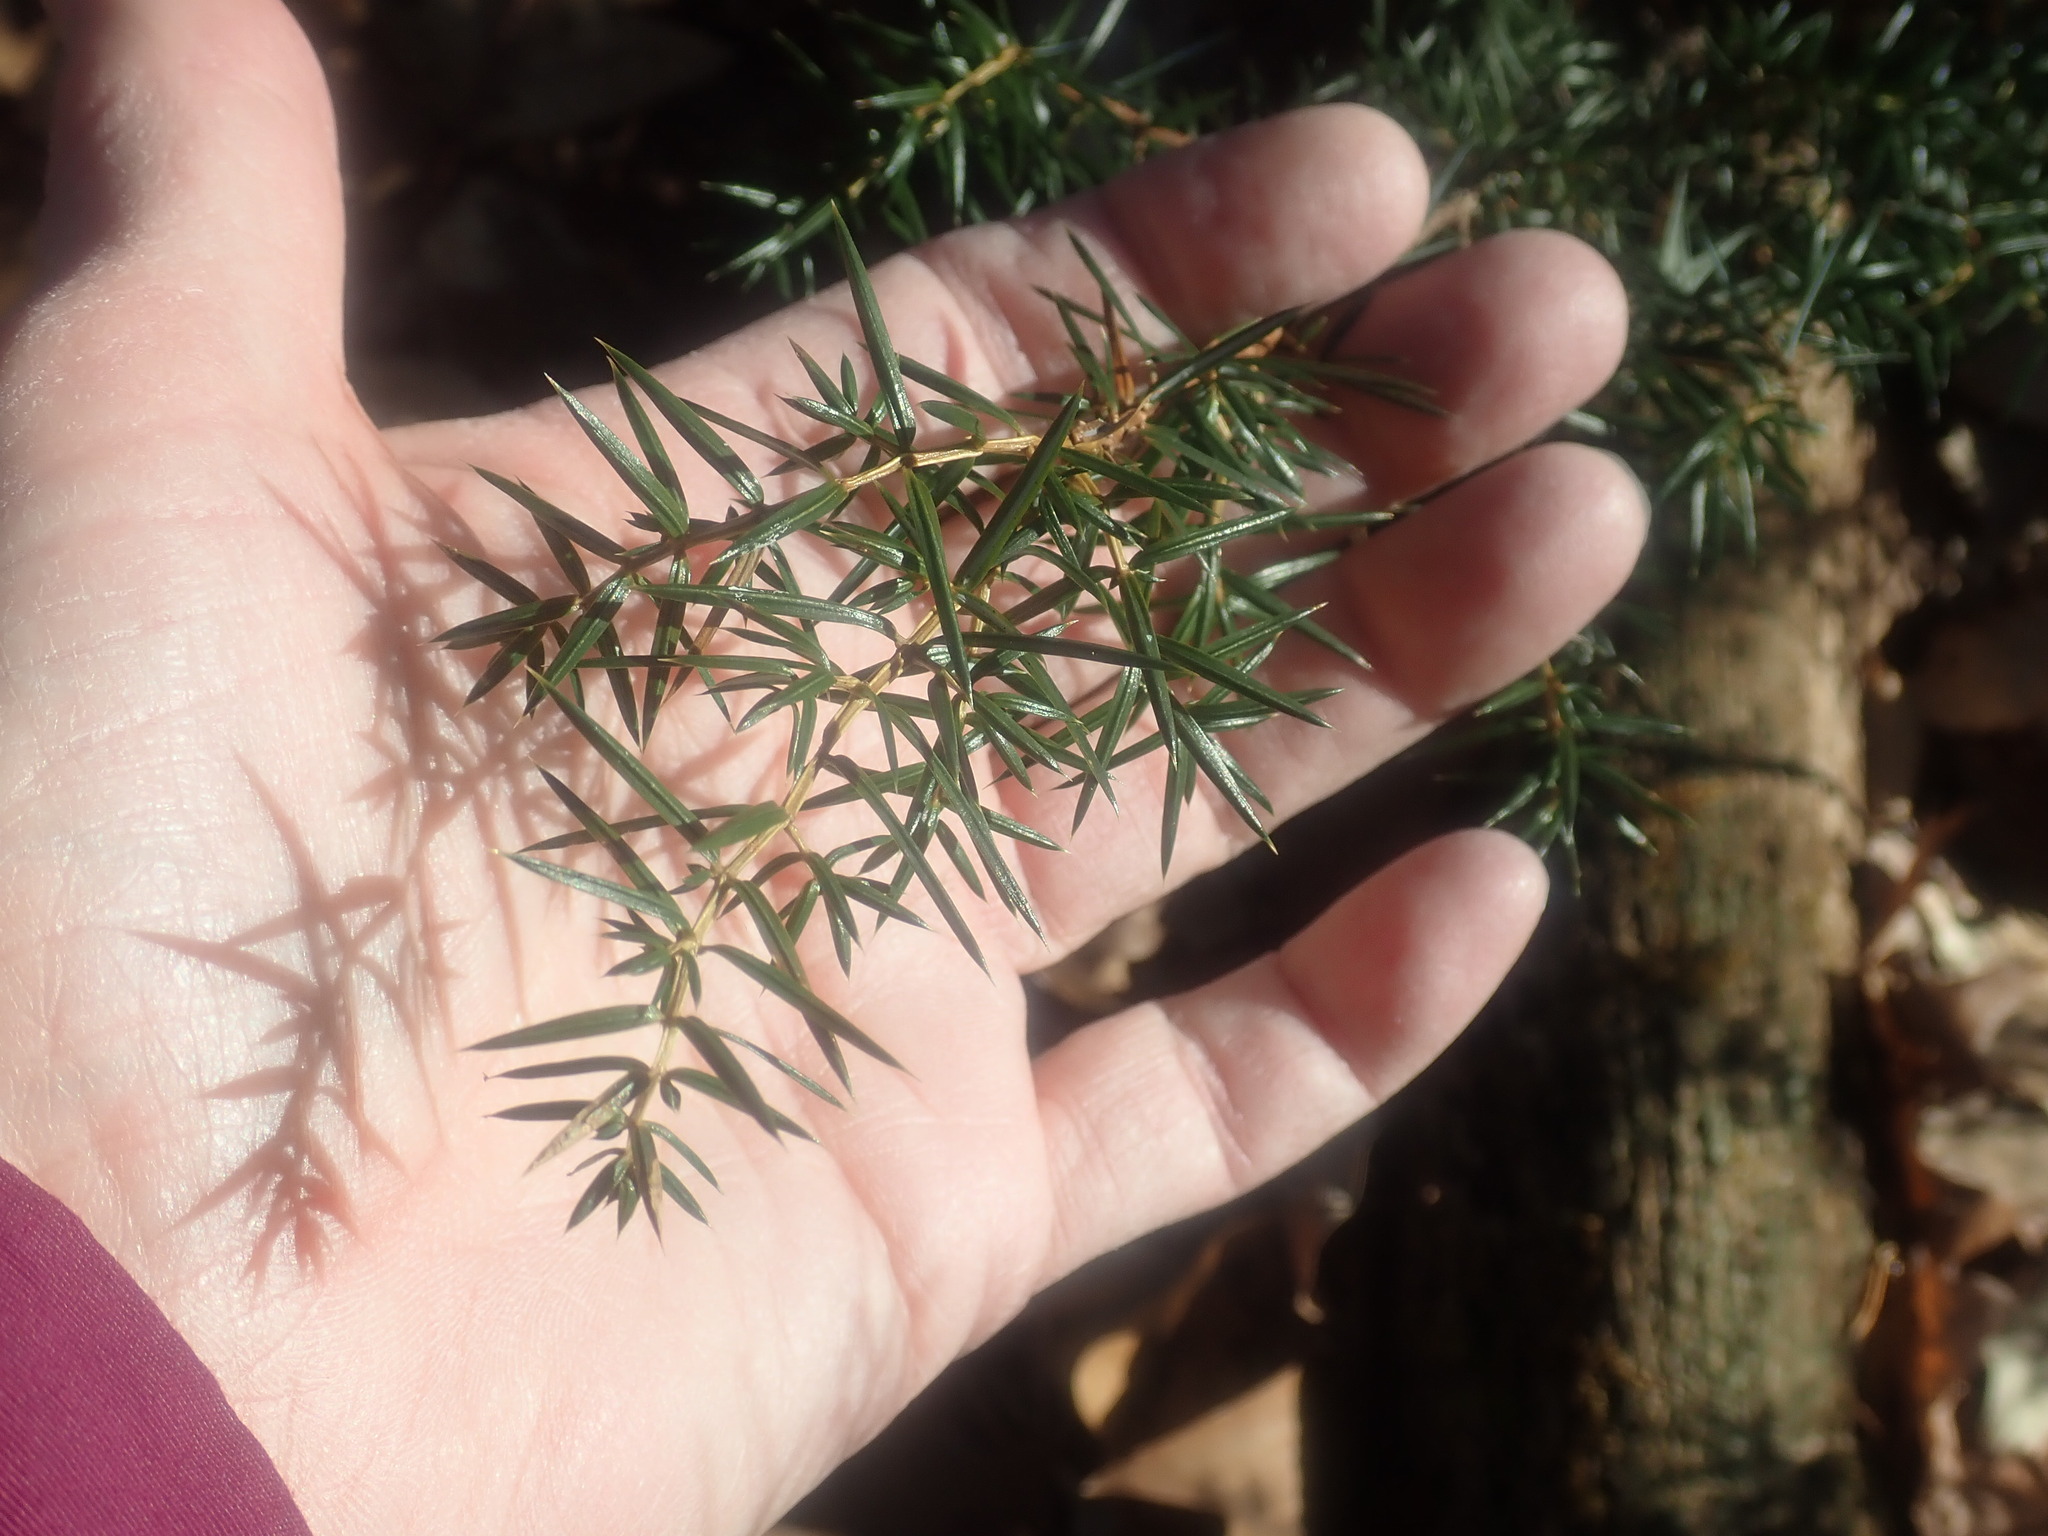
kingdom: Plantae
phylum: Tracheophyta
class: Pinopsida
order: Pinales
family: Cupressaceae
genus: Juniperus
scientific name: Juniperus communis
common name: Common juniper
